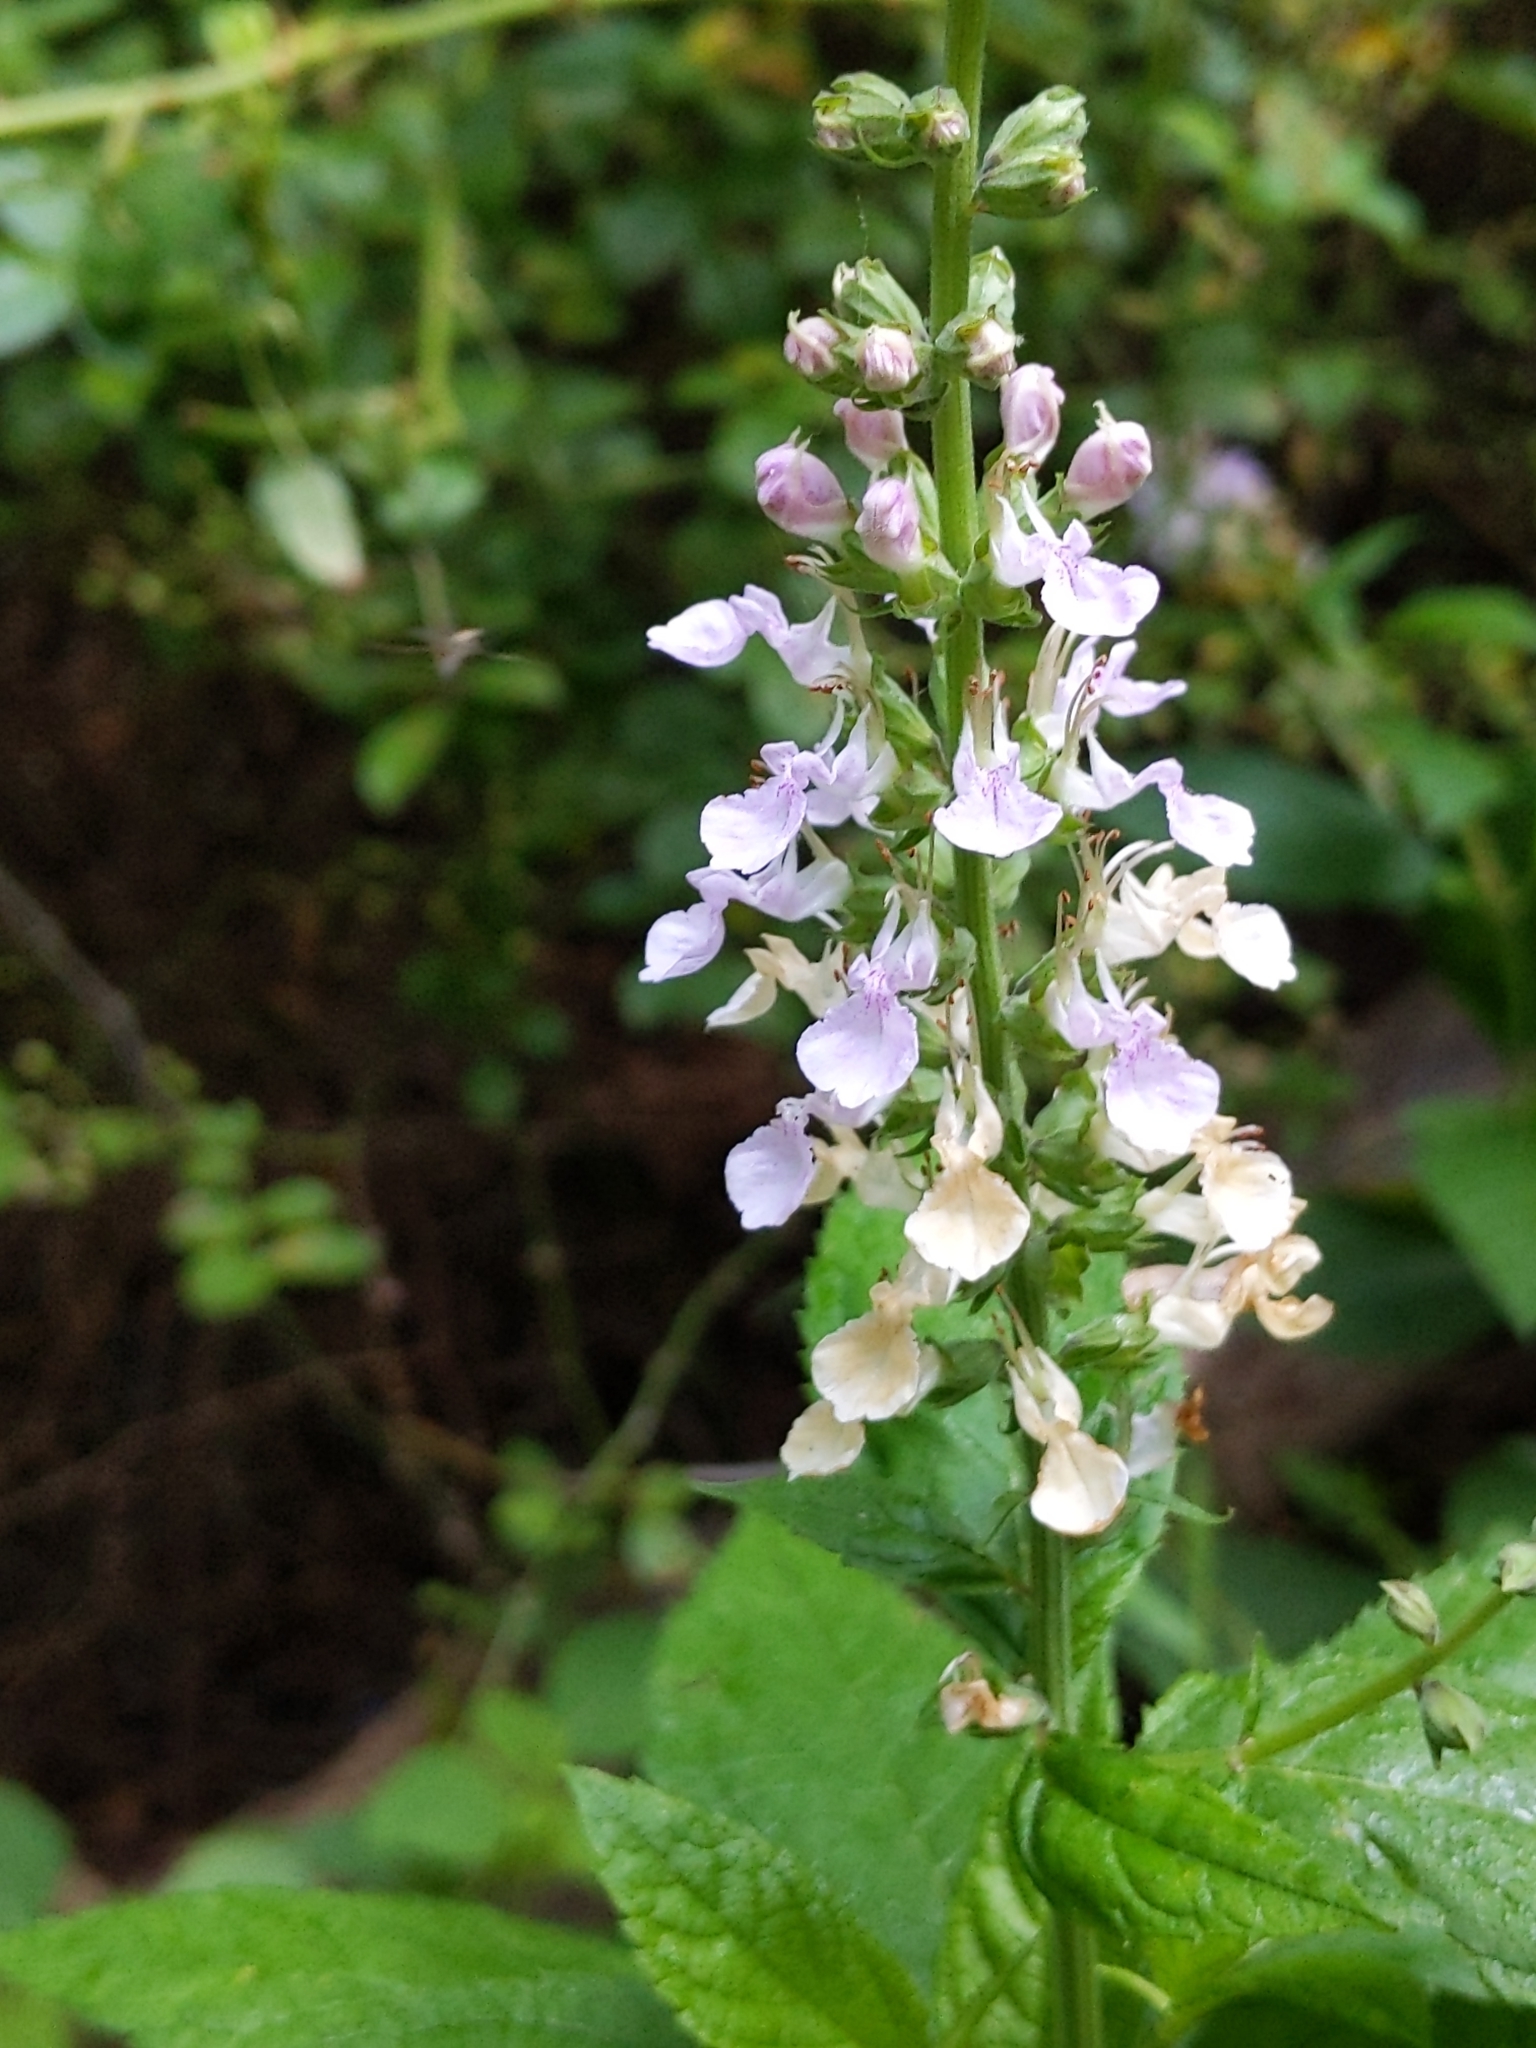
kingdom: Plantae
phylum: Tracheophyta
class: Magnoliopsida
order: Lamiales
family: Lamiaceae
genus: Teucrium
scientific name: Teucrium canadense
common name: American germander
